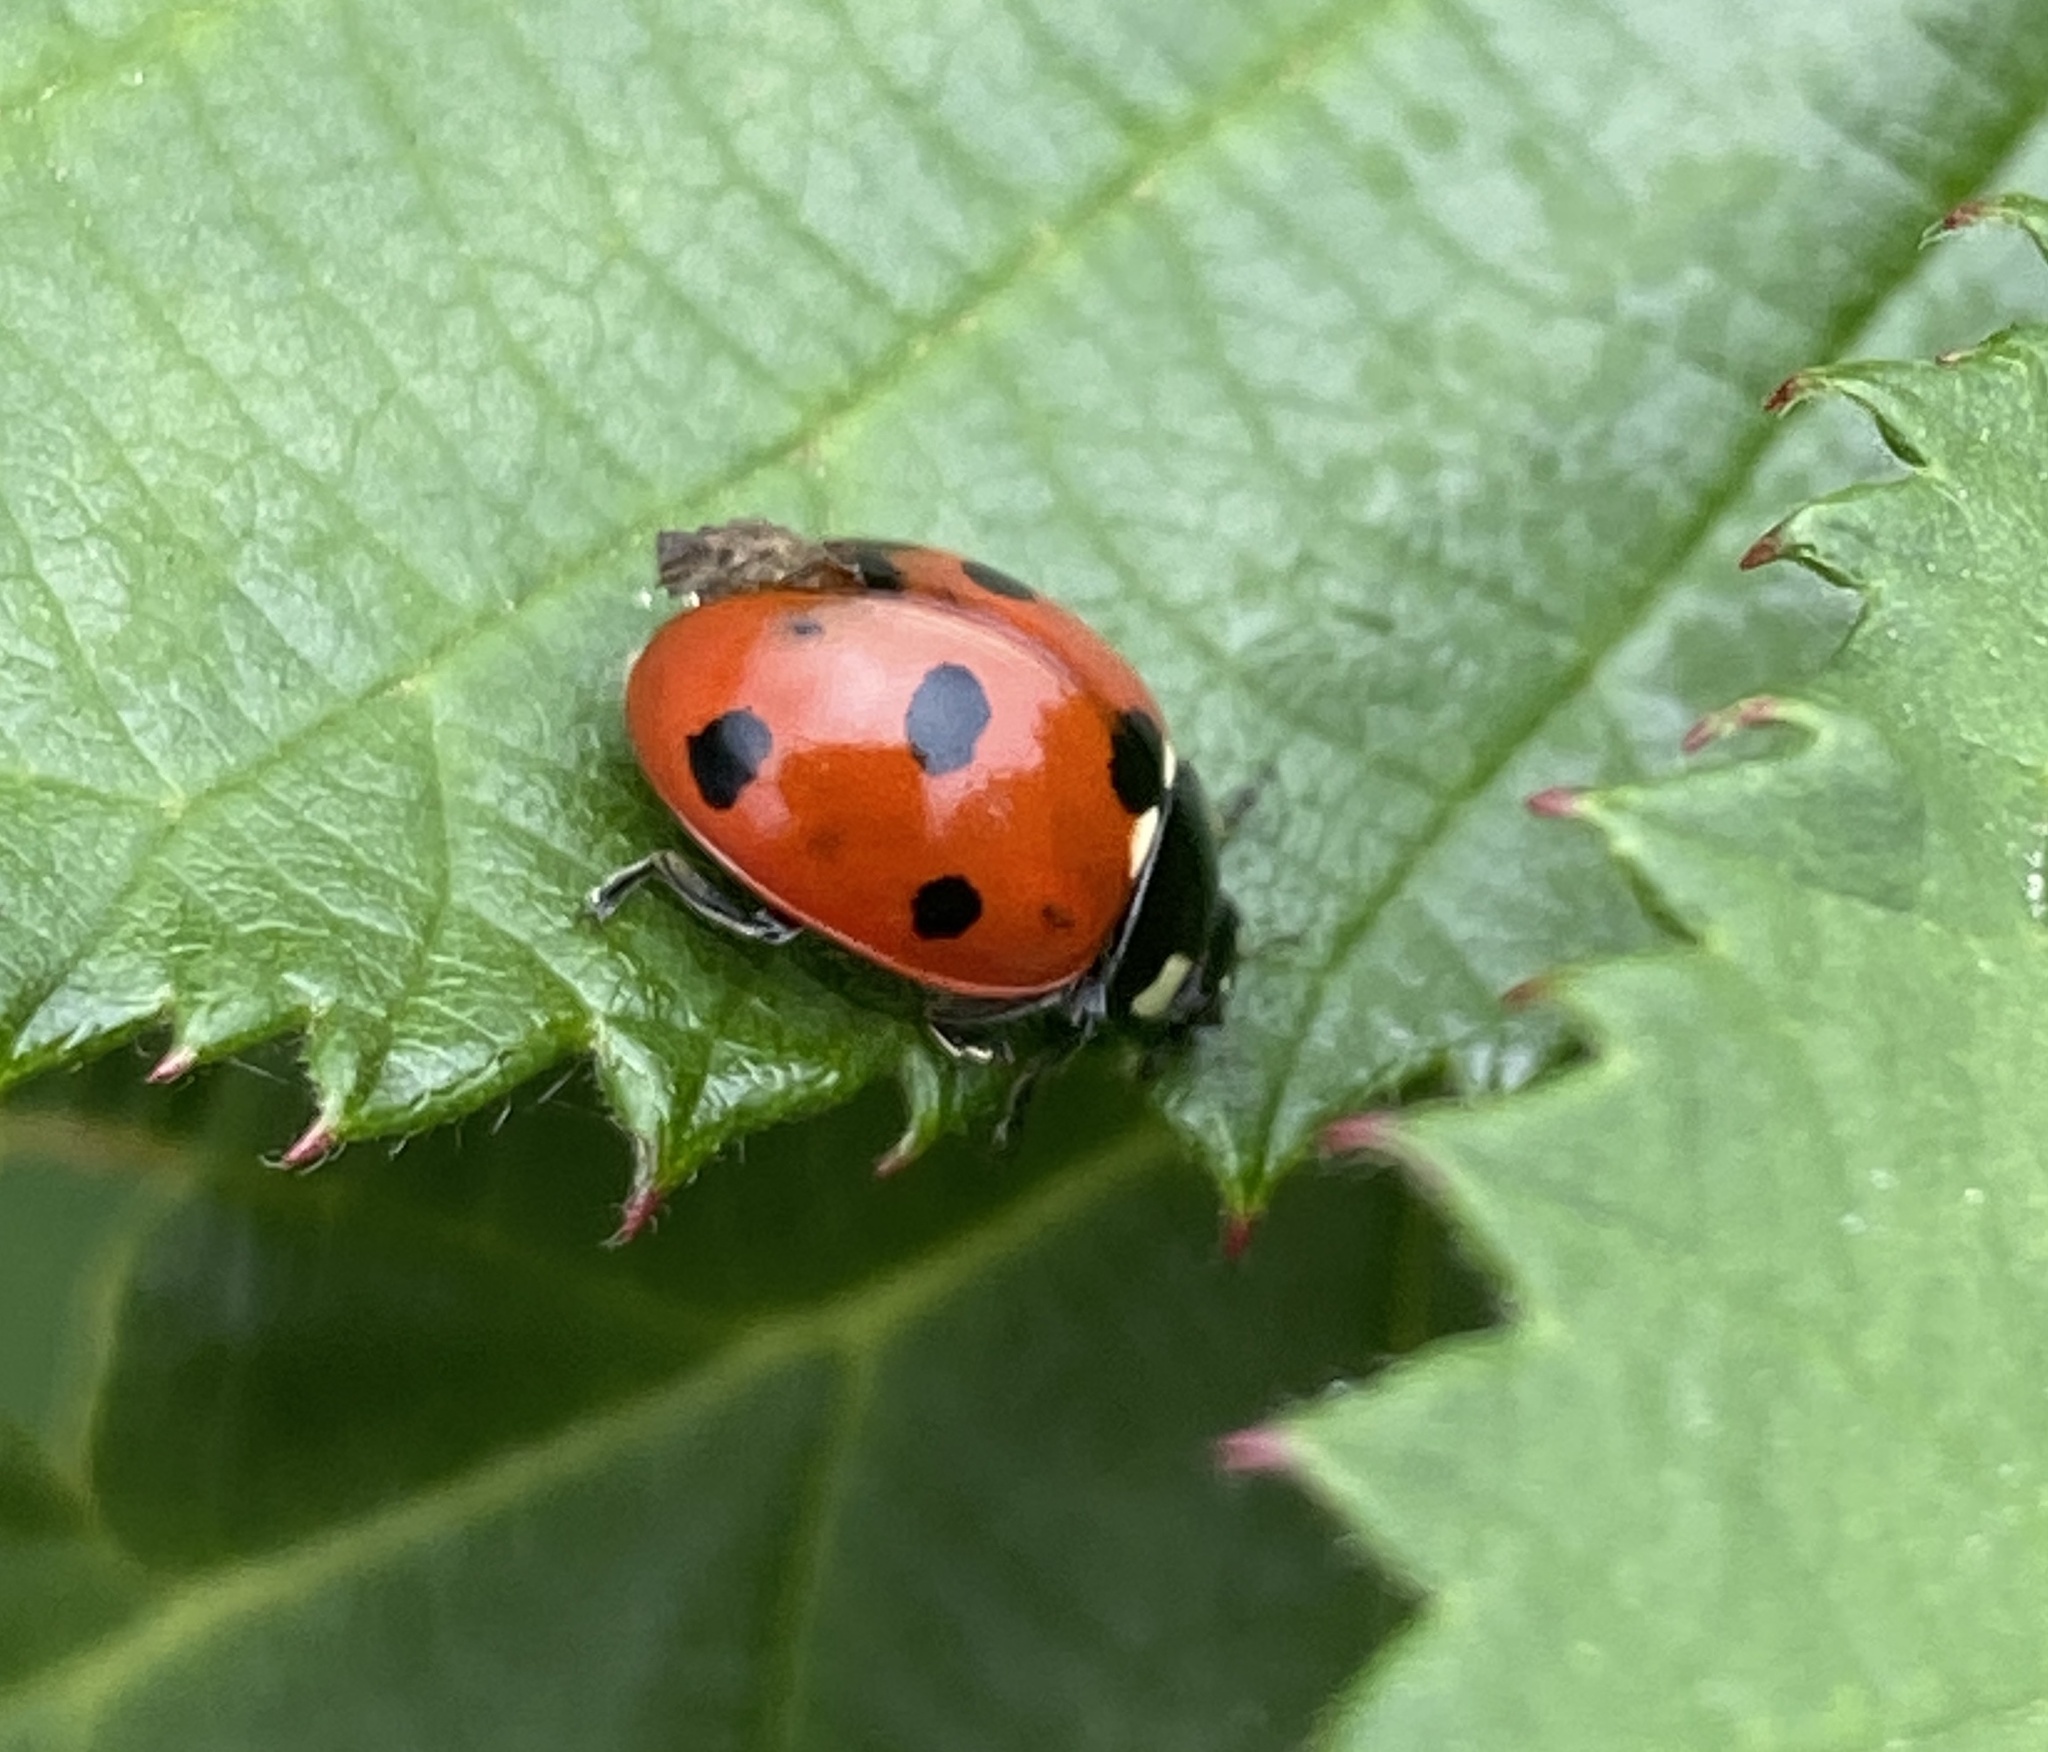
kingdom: Animalia
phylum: Arthropoda
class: Insecta
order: Coleoptera
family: Coccinellidae
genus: Coccinella
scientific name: Coccinella septempunctata
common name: Sevenspotted lady beetle
